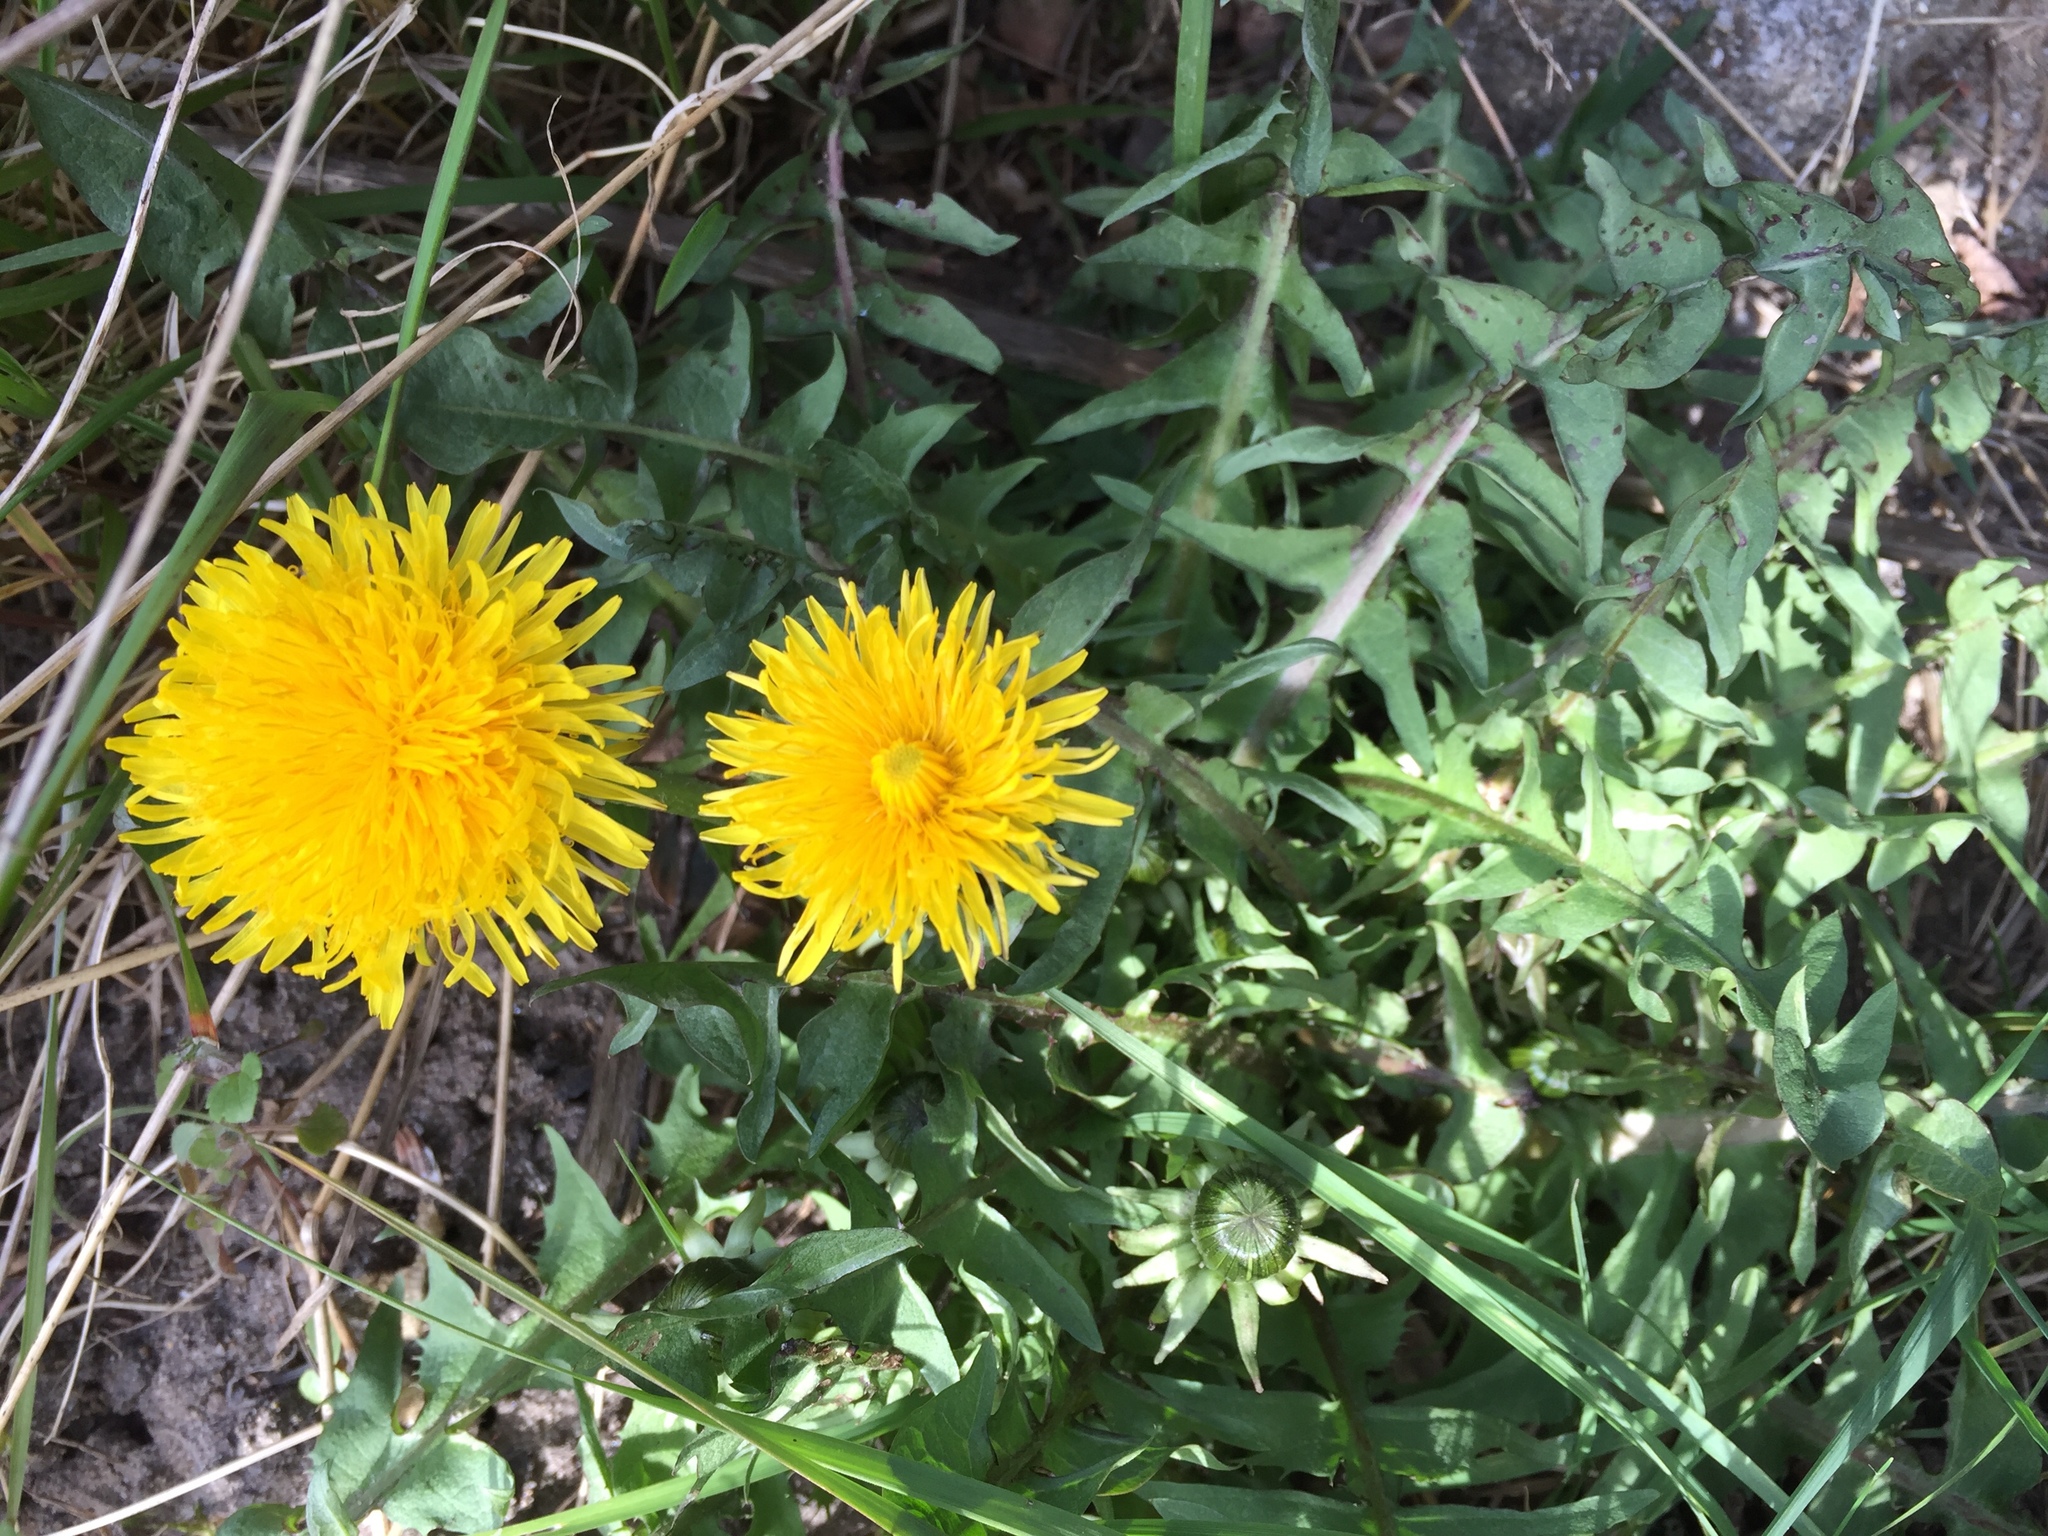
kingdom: Plantae
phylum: Tracheophyta
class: Magnoliopsida
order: Asterales
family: Asteraceae
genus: Taraxacum
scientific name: Taraxacum officinale
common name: Common dandelion
